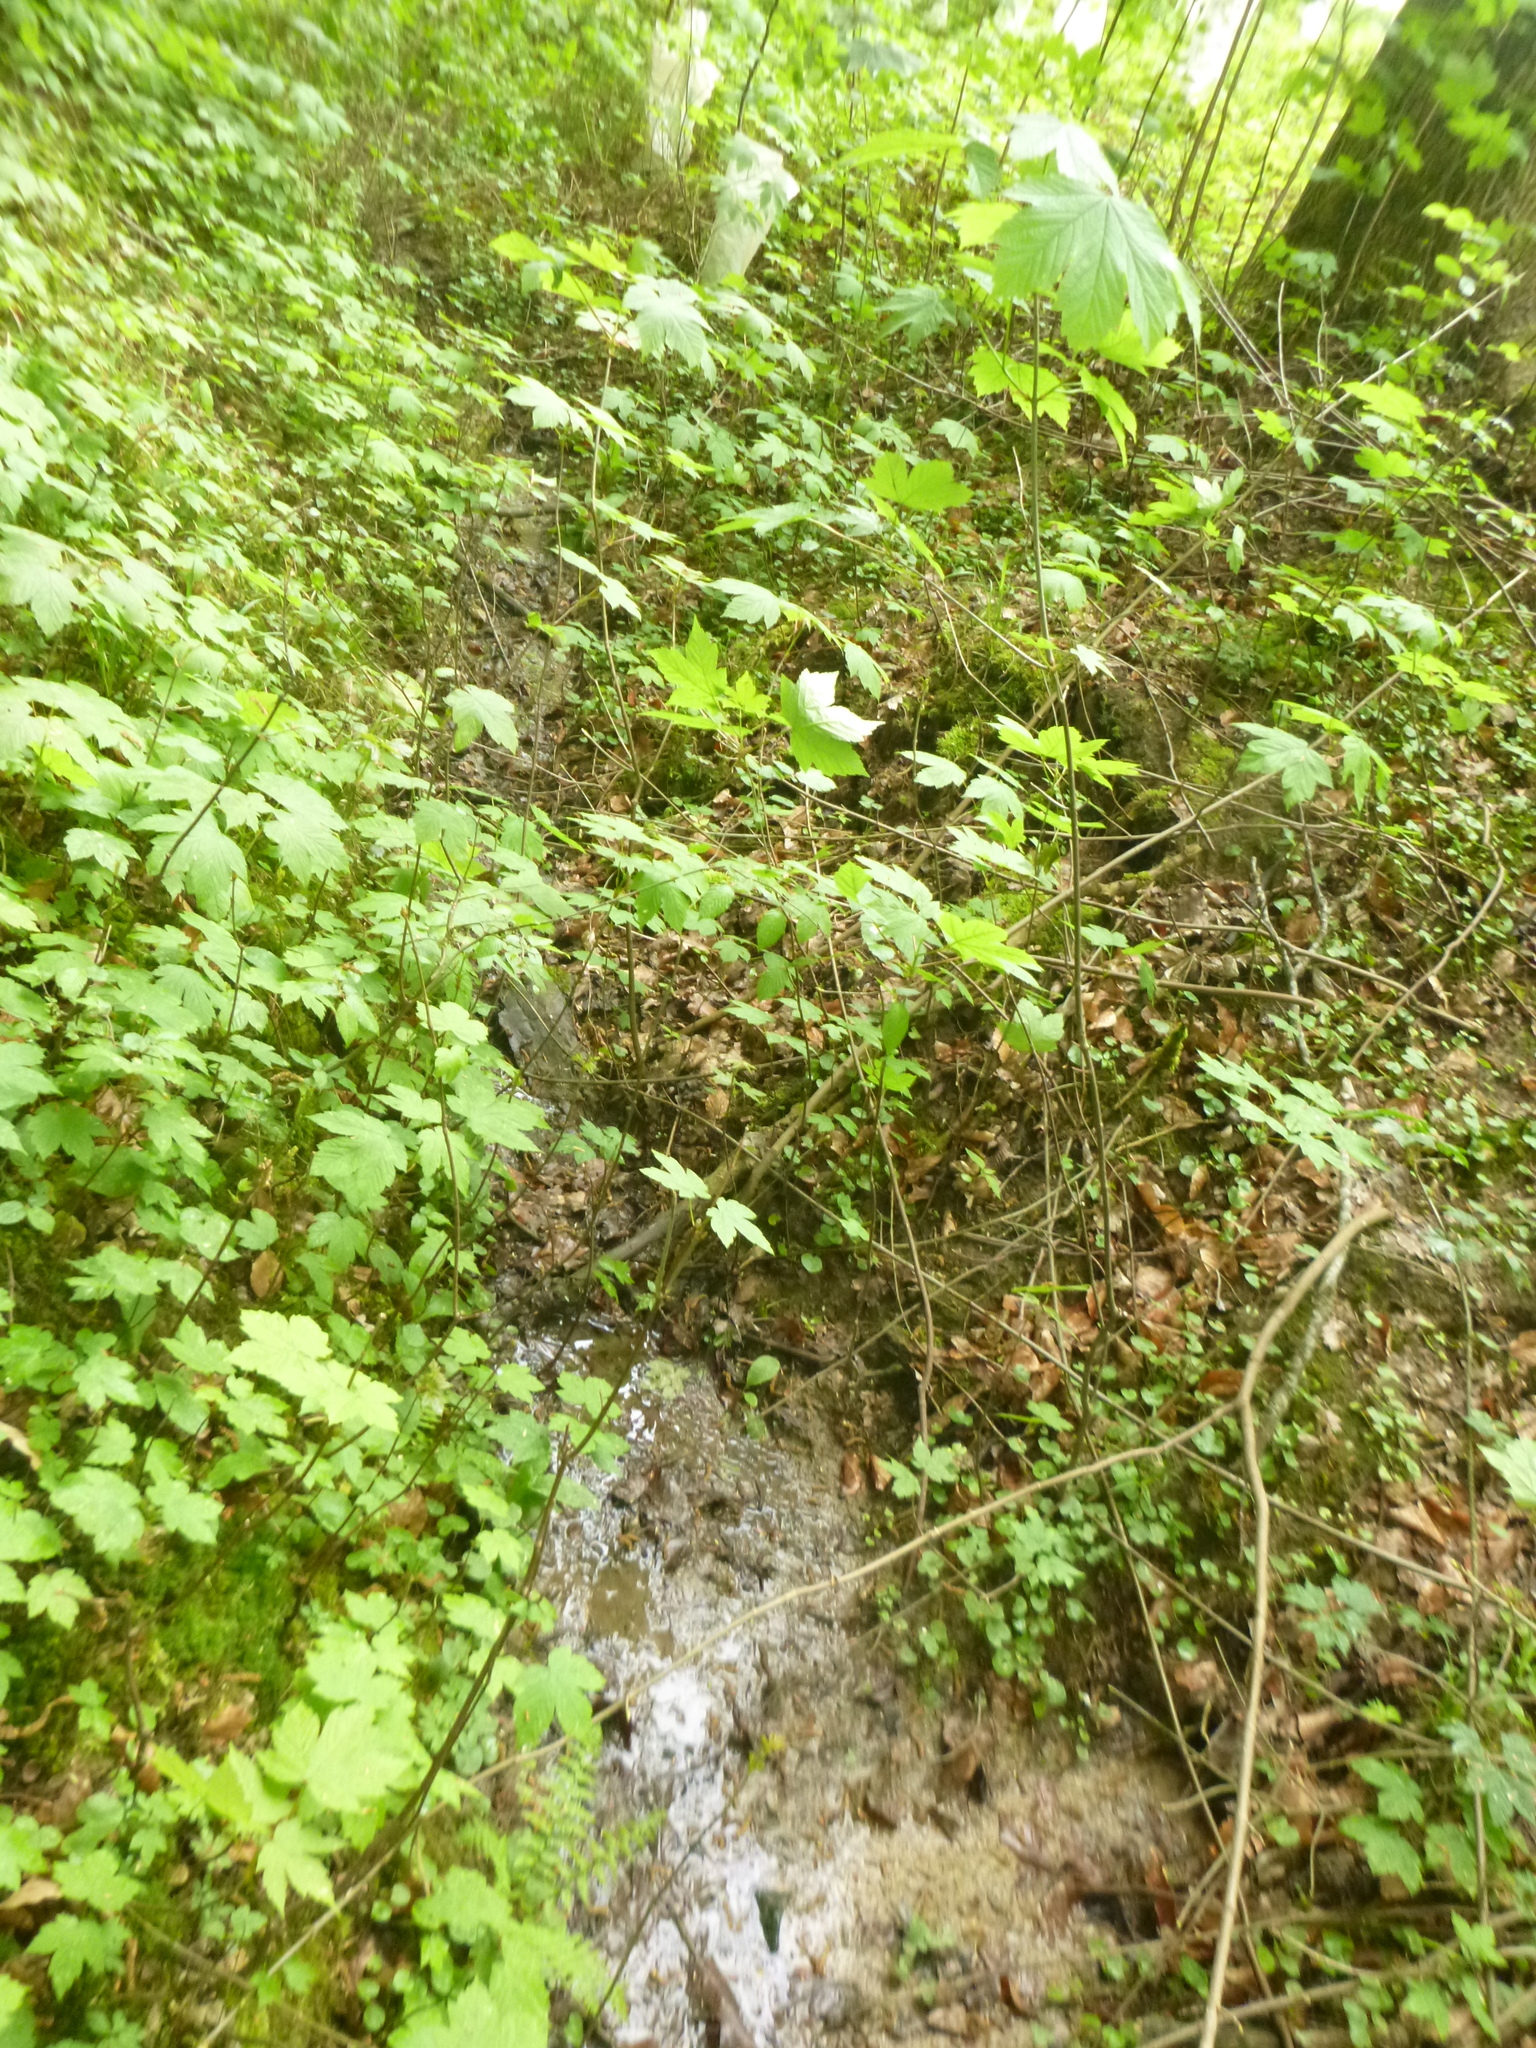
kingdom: Plantae
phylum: Tracheophyta
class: Magnoliopsida
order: Sapindales
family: Sapindaceae
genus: Acer
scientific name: Acer pseudoplatanus
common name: Sycamore
